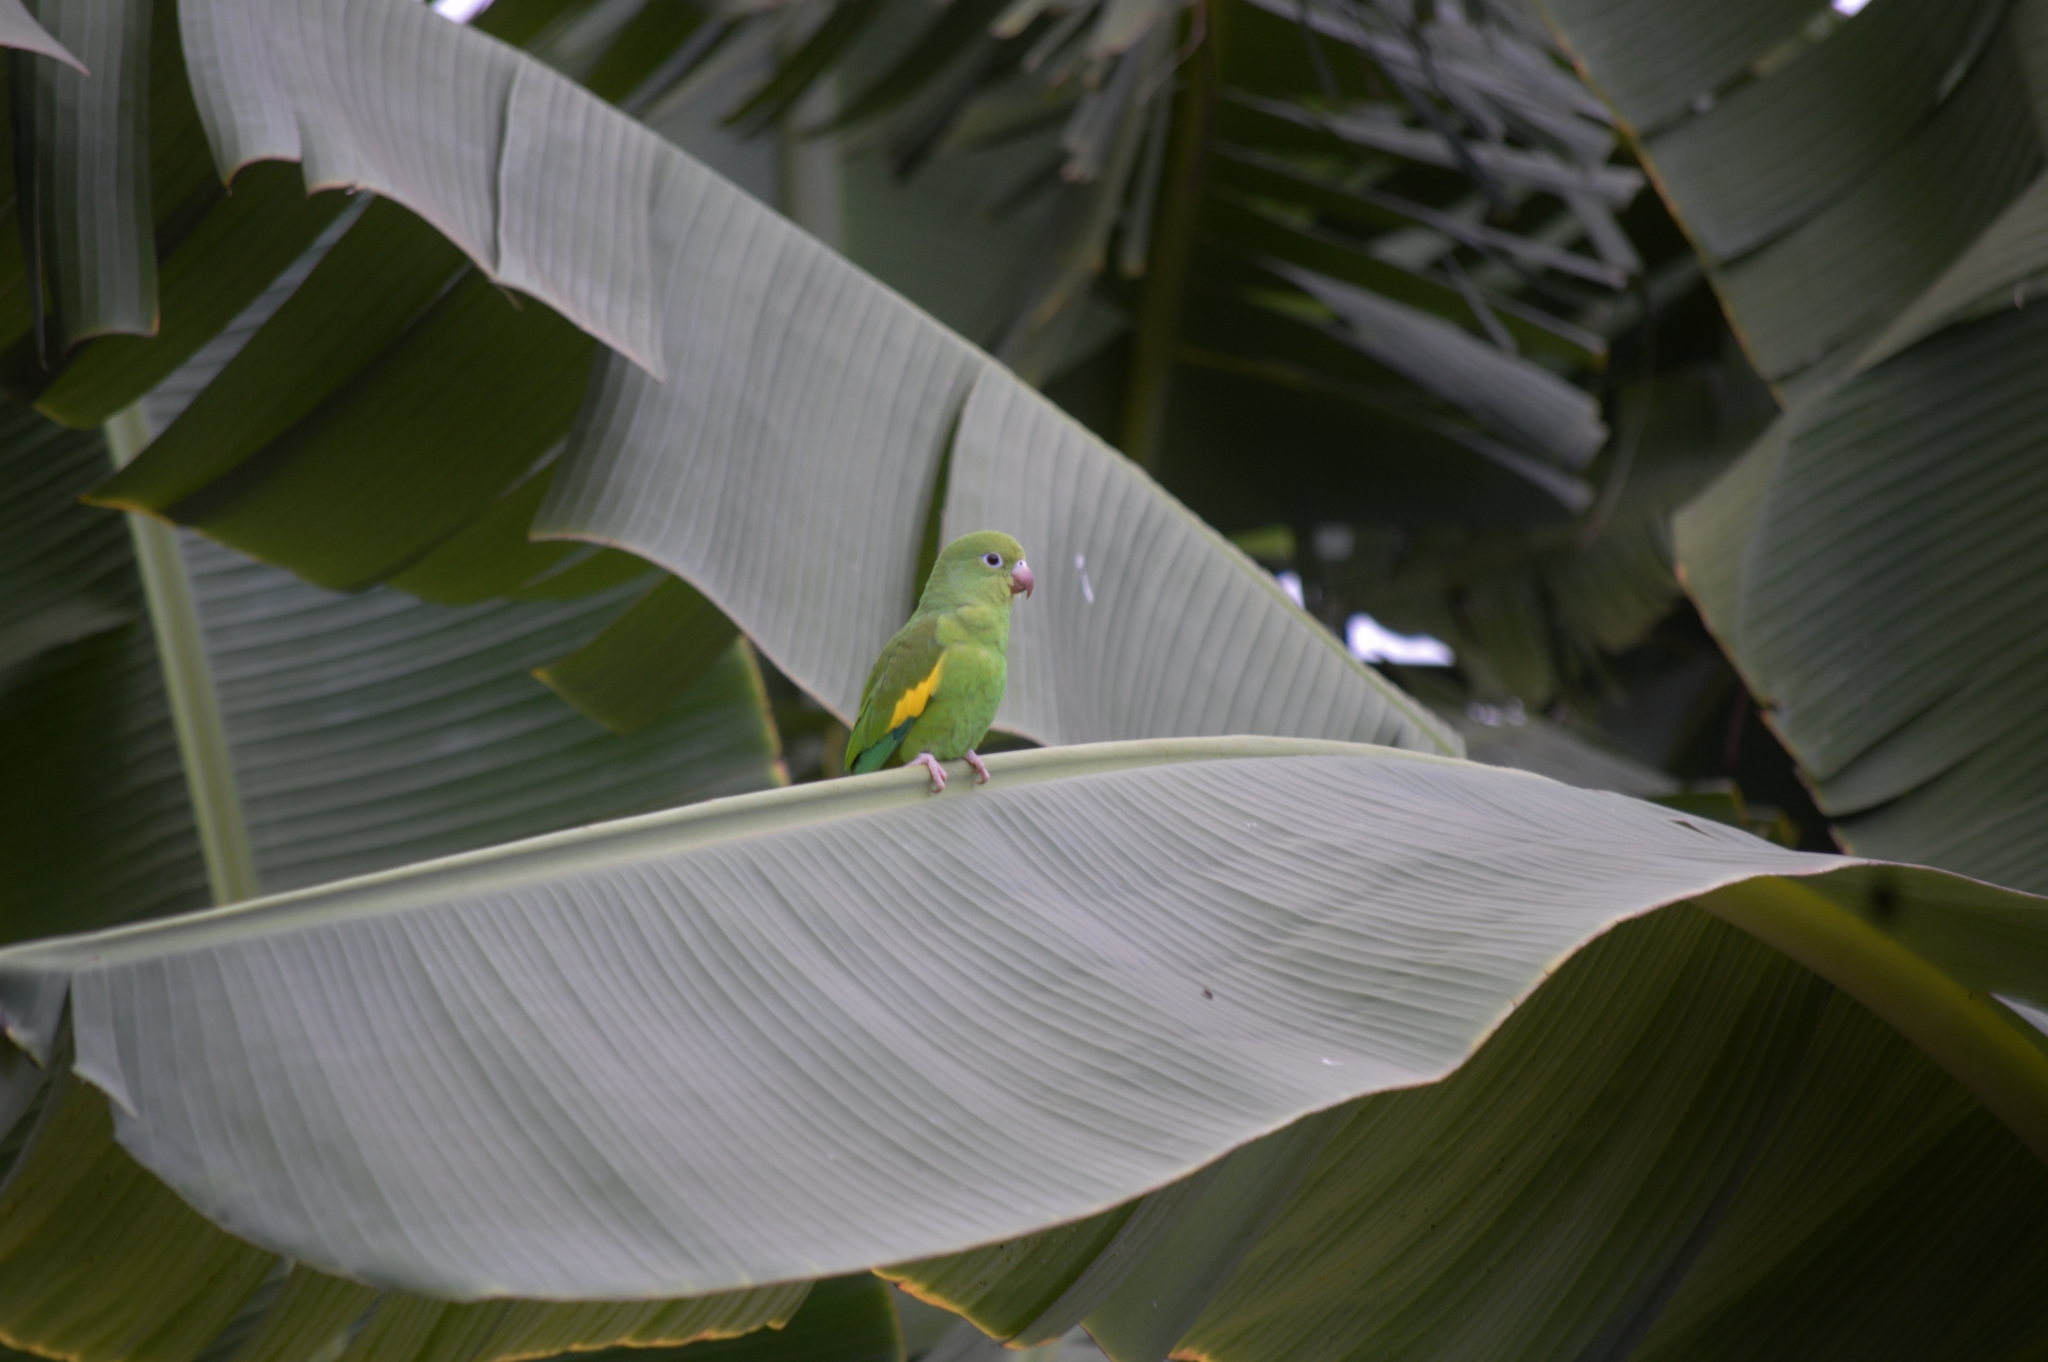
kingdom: Animalia
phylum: Chordata
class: Aves
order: Psittaciformes
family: Psittacidae
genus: Brotogeris
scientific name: Brotogeris chiriri
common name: Yellow-chevroned parakeet
